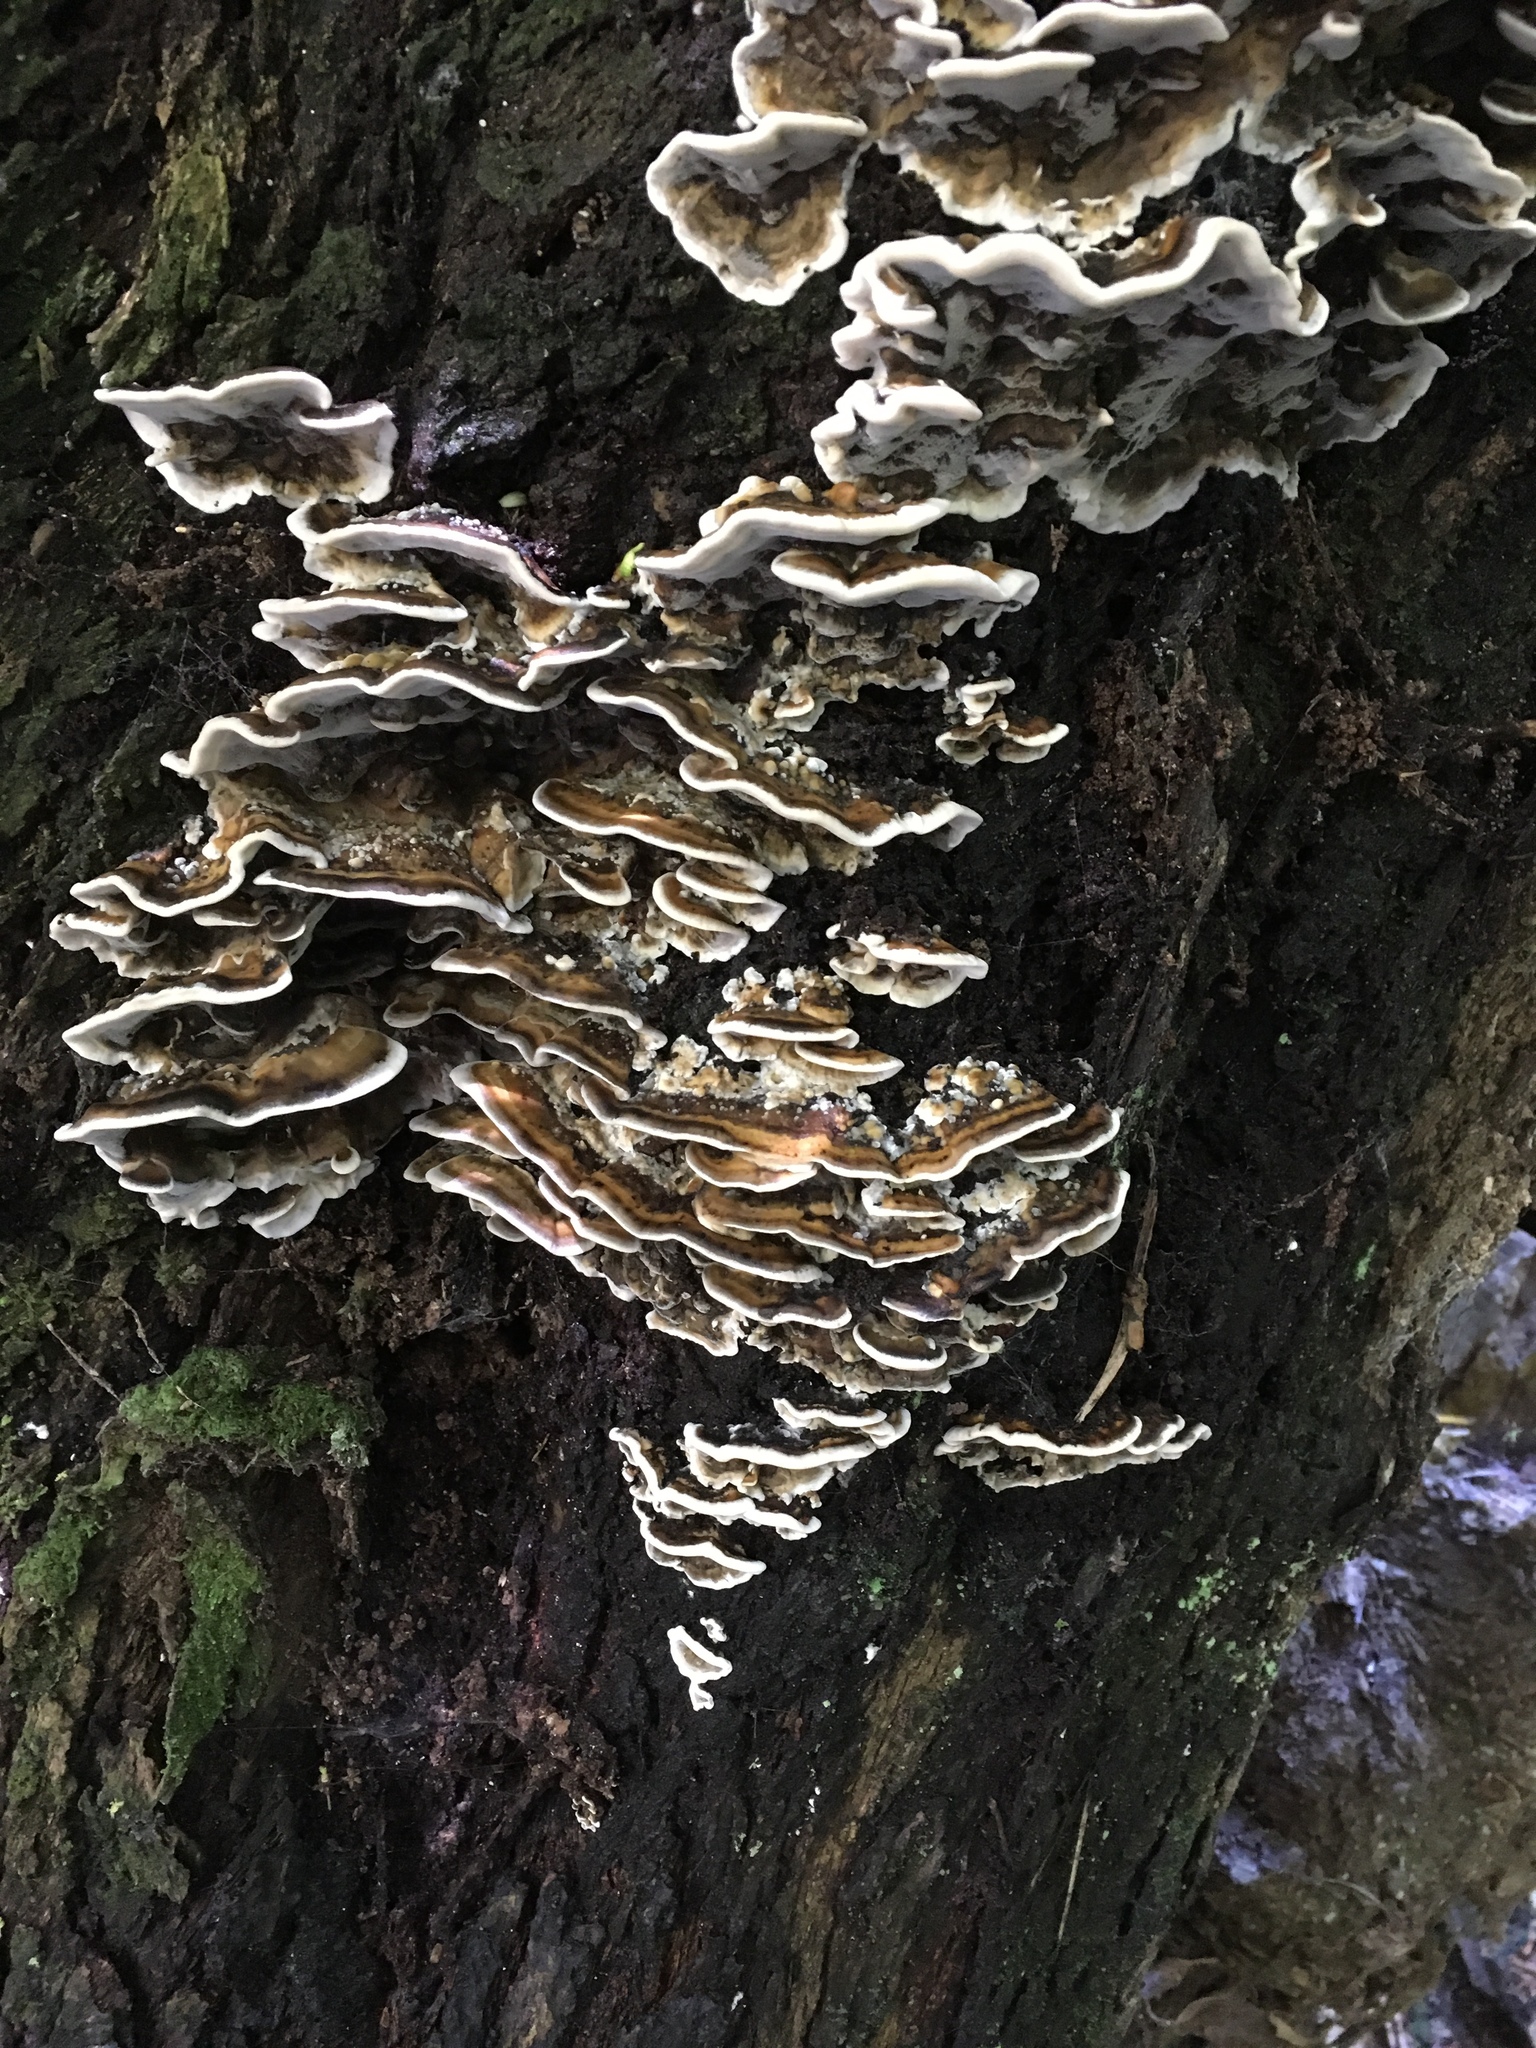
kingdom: Fungi
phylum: Basidiomycota
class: Agaricomycetes
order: Polyporales
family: Polyporaceae
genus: Trametes
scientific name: Trametes versicolor
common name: Turkeytail
